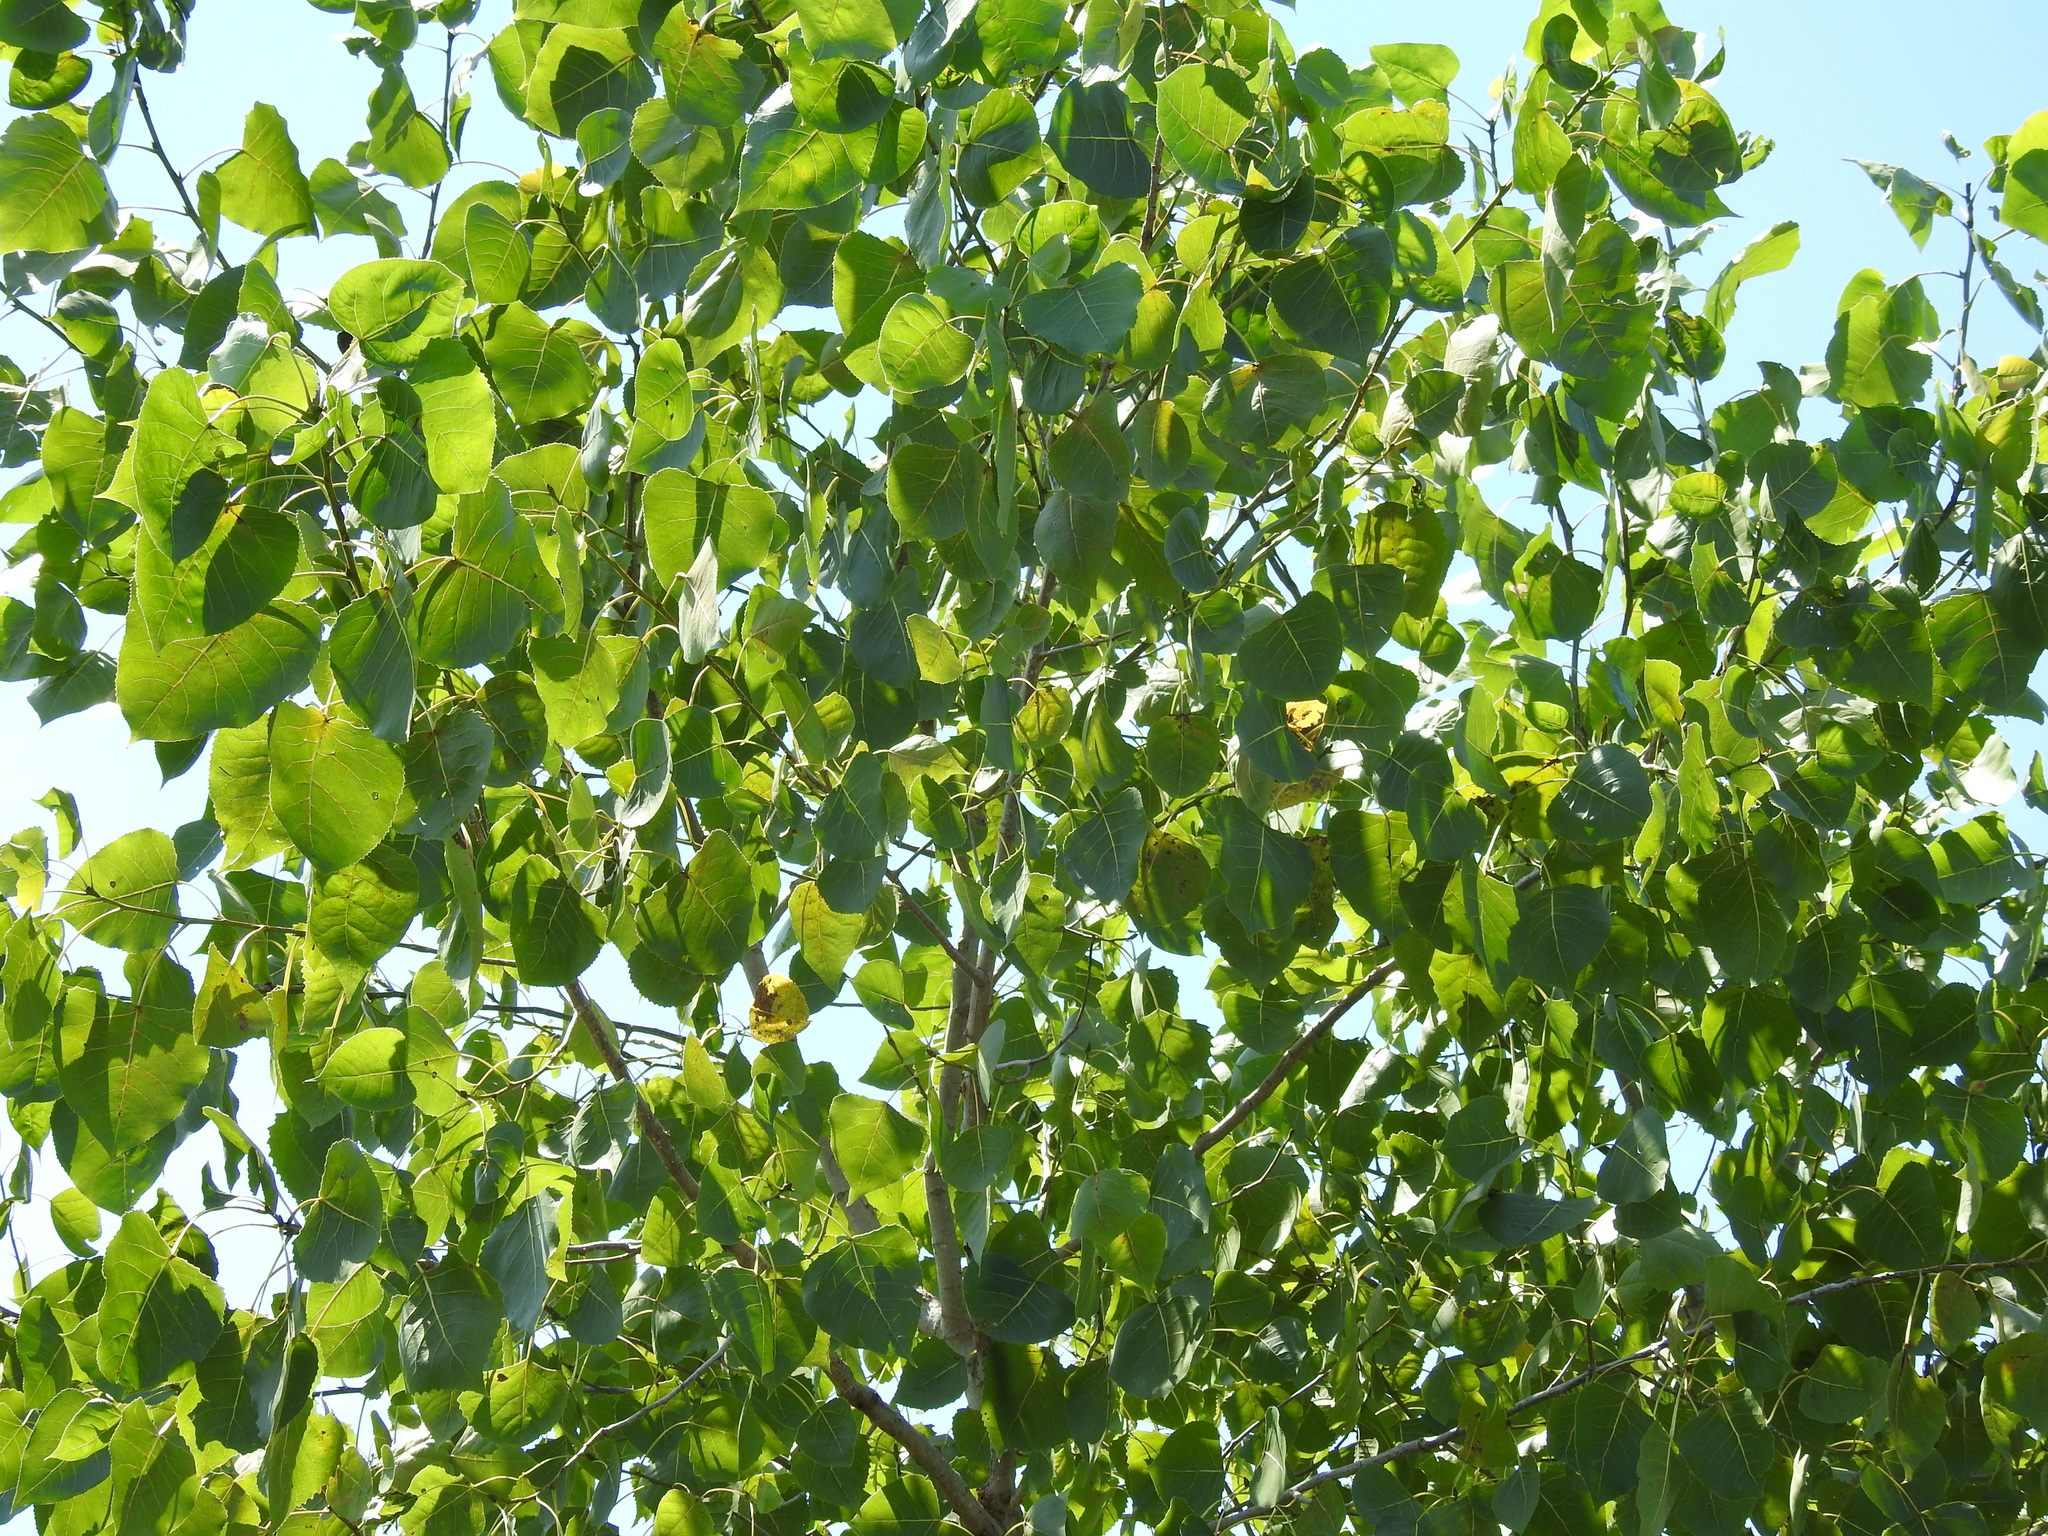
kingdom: Plantae
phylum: Tracheophyta
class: Magnoliopsida
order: Malpighiales
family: Salicaceae
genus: Populus
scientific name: Populus deltoides
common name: Eastern cottonwood
